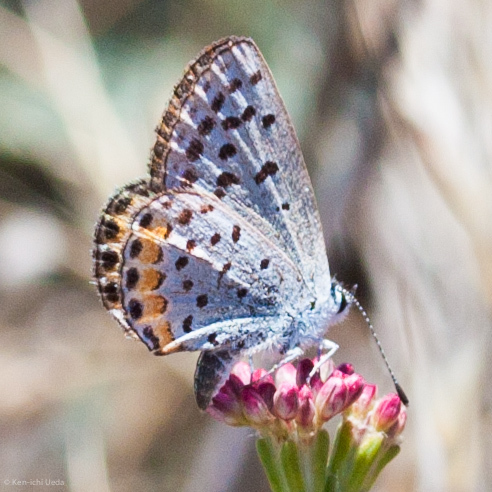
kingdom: Animalia
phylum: Arthropoda
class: Insecta
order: Lepidoptera
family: Lycaenidae
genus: Icaricia
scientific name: Icaricia acmon
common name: Acmon blue
